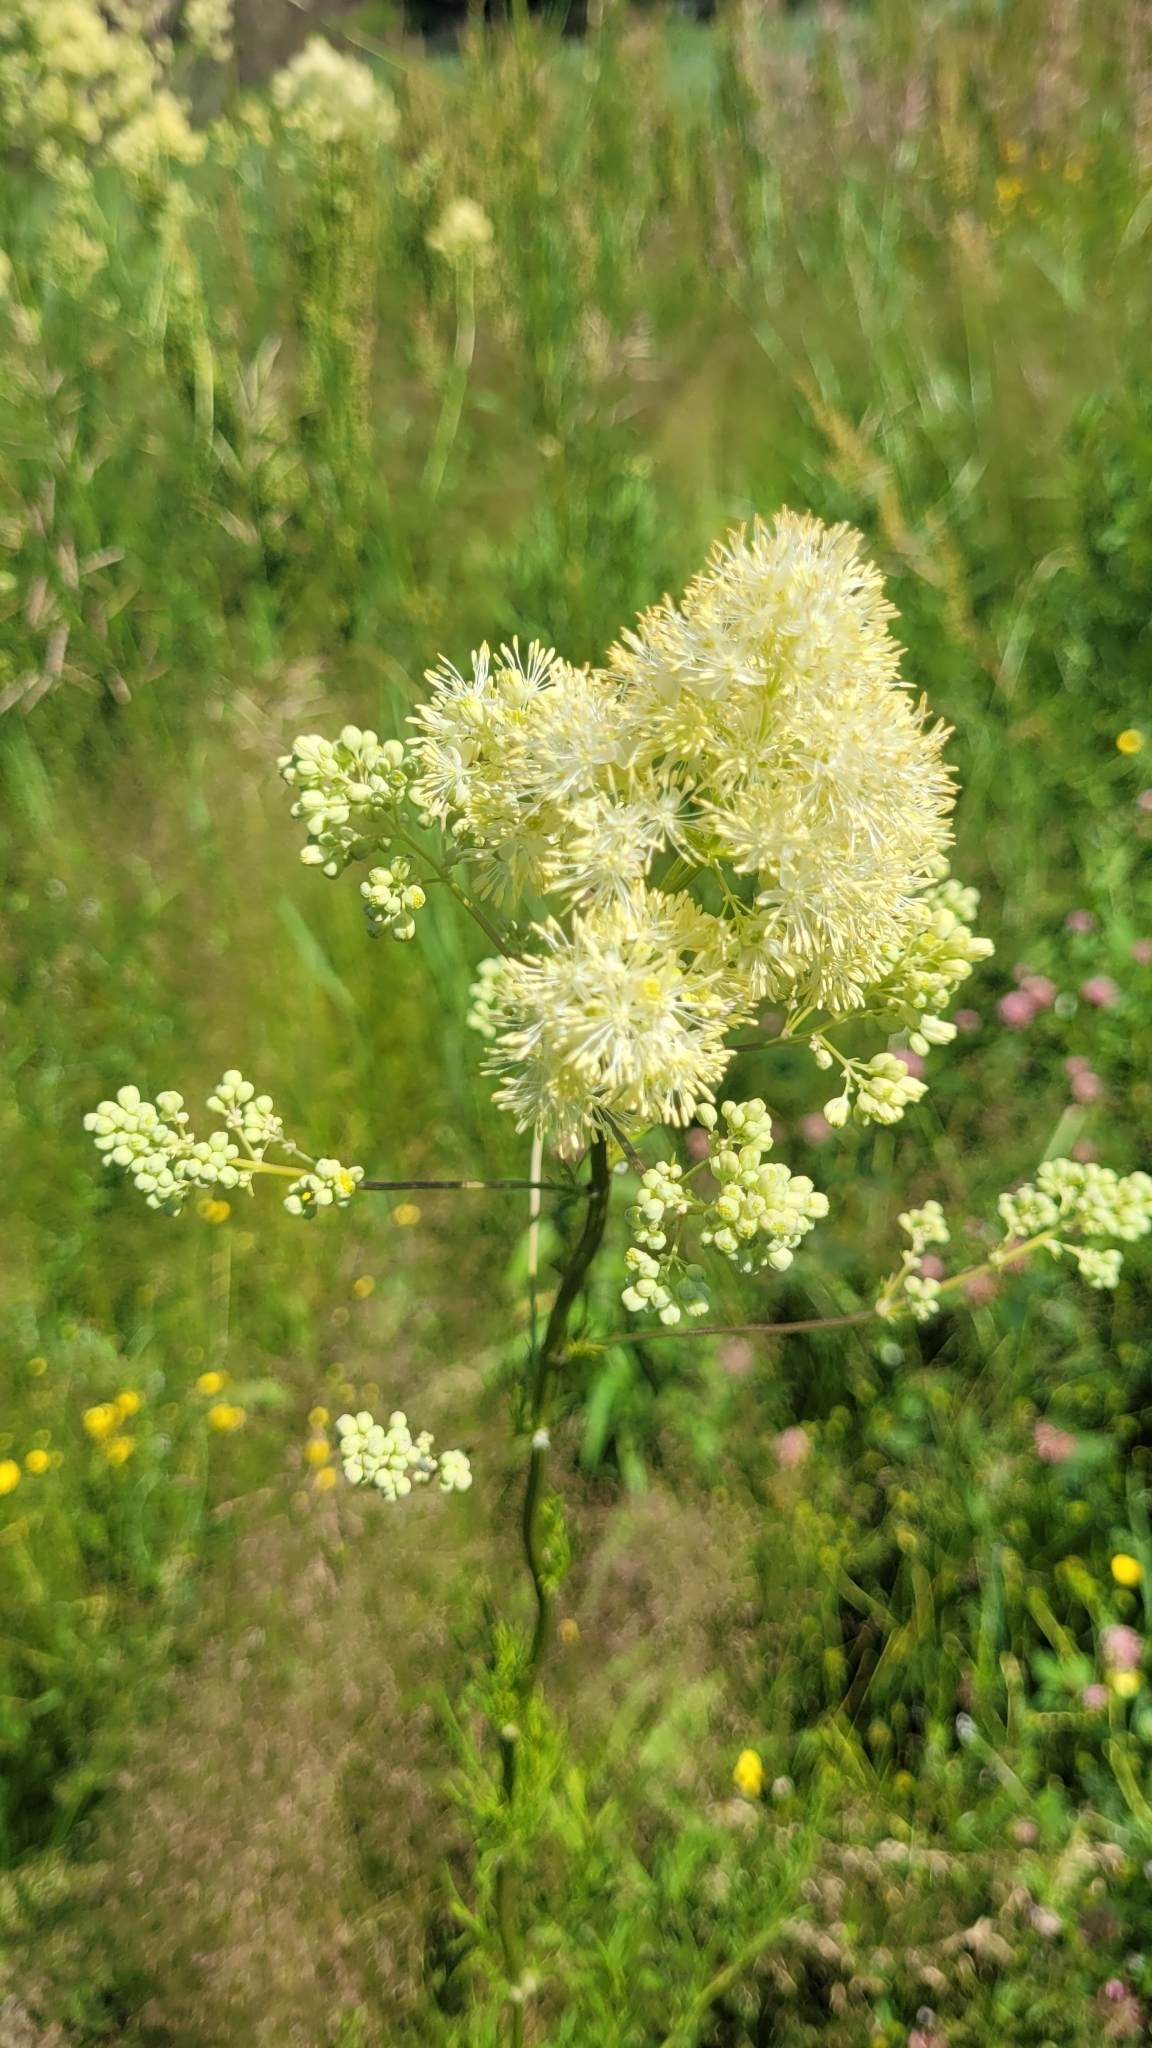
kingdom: Plantae
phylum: Tracheophyta
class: Magnoliopsida
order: Ranunculales
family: Ranunculaceae
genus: Thalictrum
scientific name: Thalictrum lucidum
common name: Shining meadow-rue
